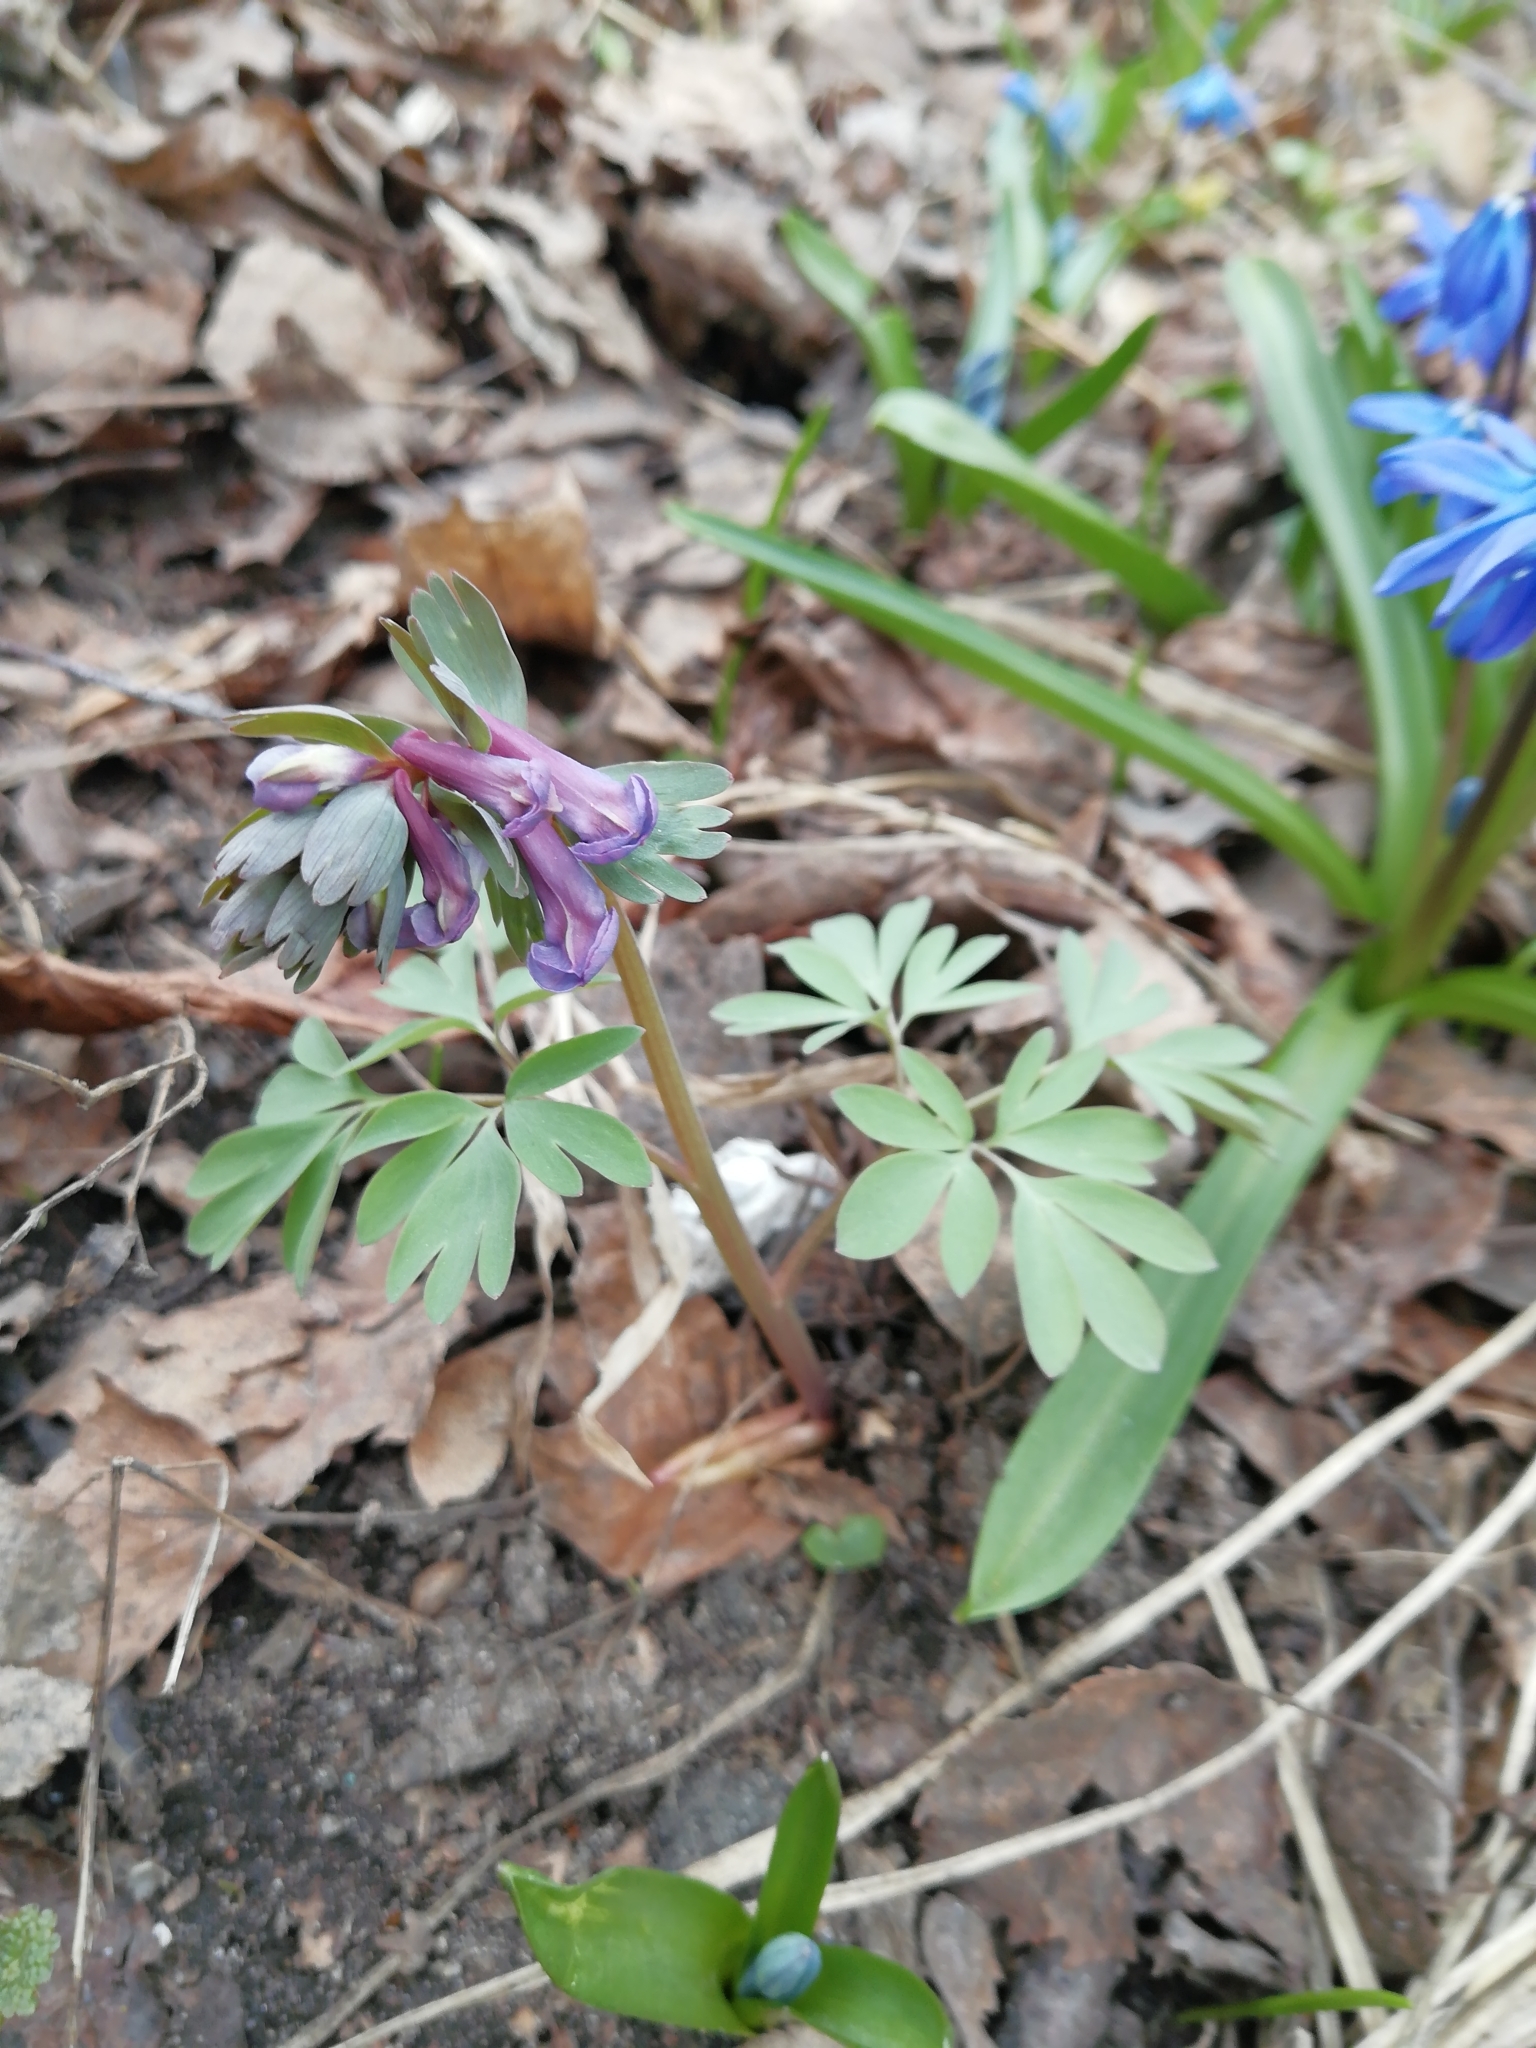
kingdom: Plantae
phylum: Tracheophyta
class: Magnoliopsida
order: Ranunculales
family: Papaveraceae
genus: Corydalis
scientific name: Corydalis solida
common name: Bird-in-a-bush
